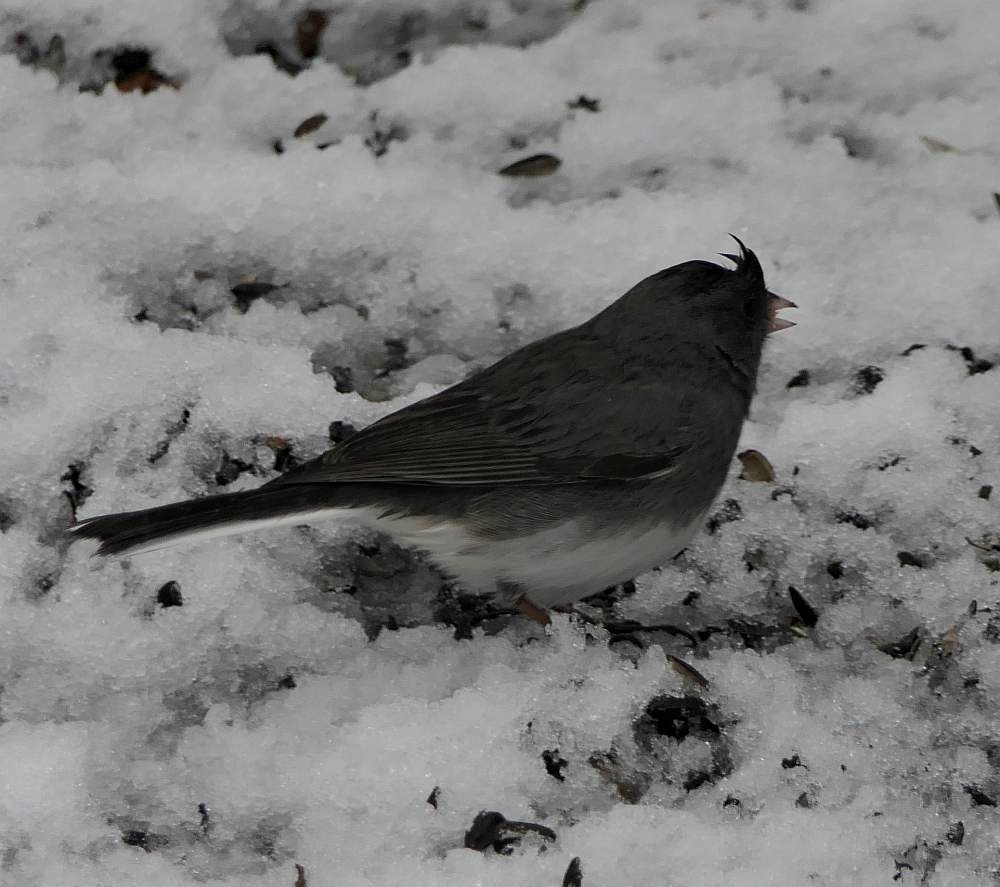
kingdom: Animalia
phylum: Chordata
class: Aves
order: Passeriformes
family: Passerellidae
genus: Junco
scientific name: Junco hyemalis
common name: Dark-eyed junco
